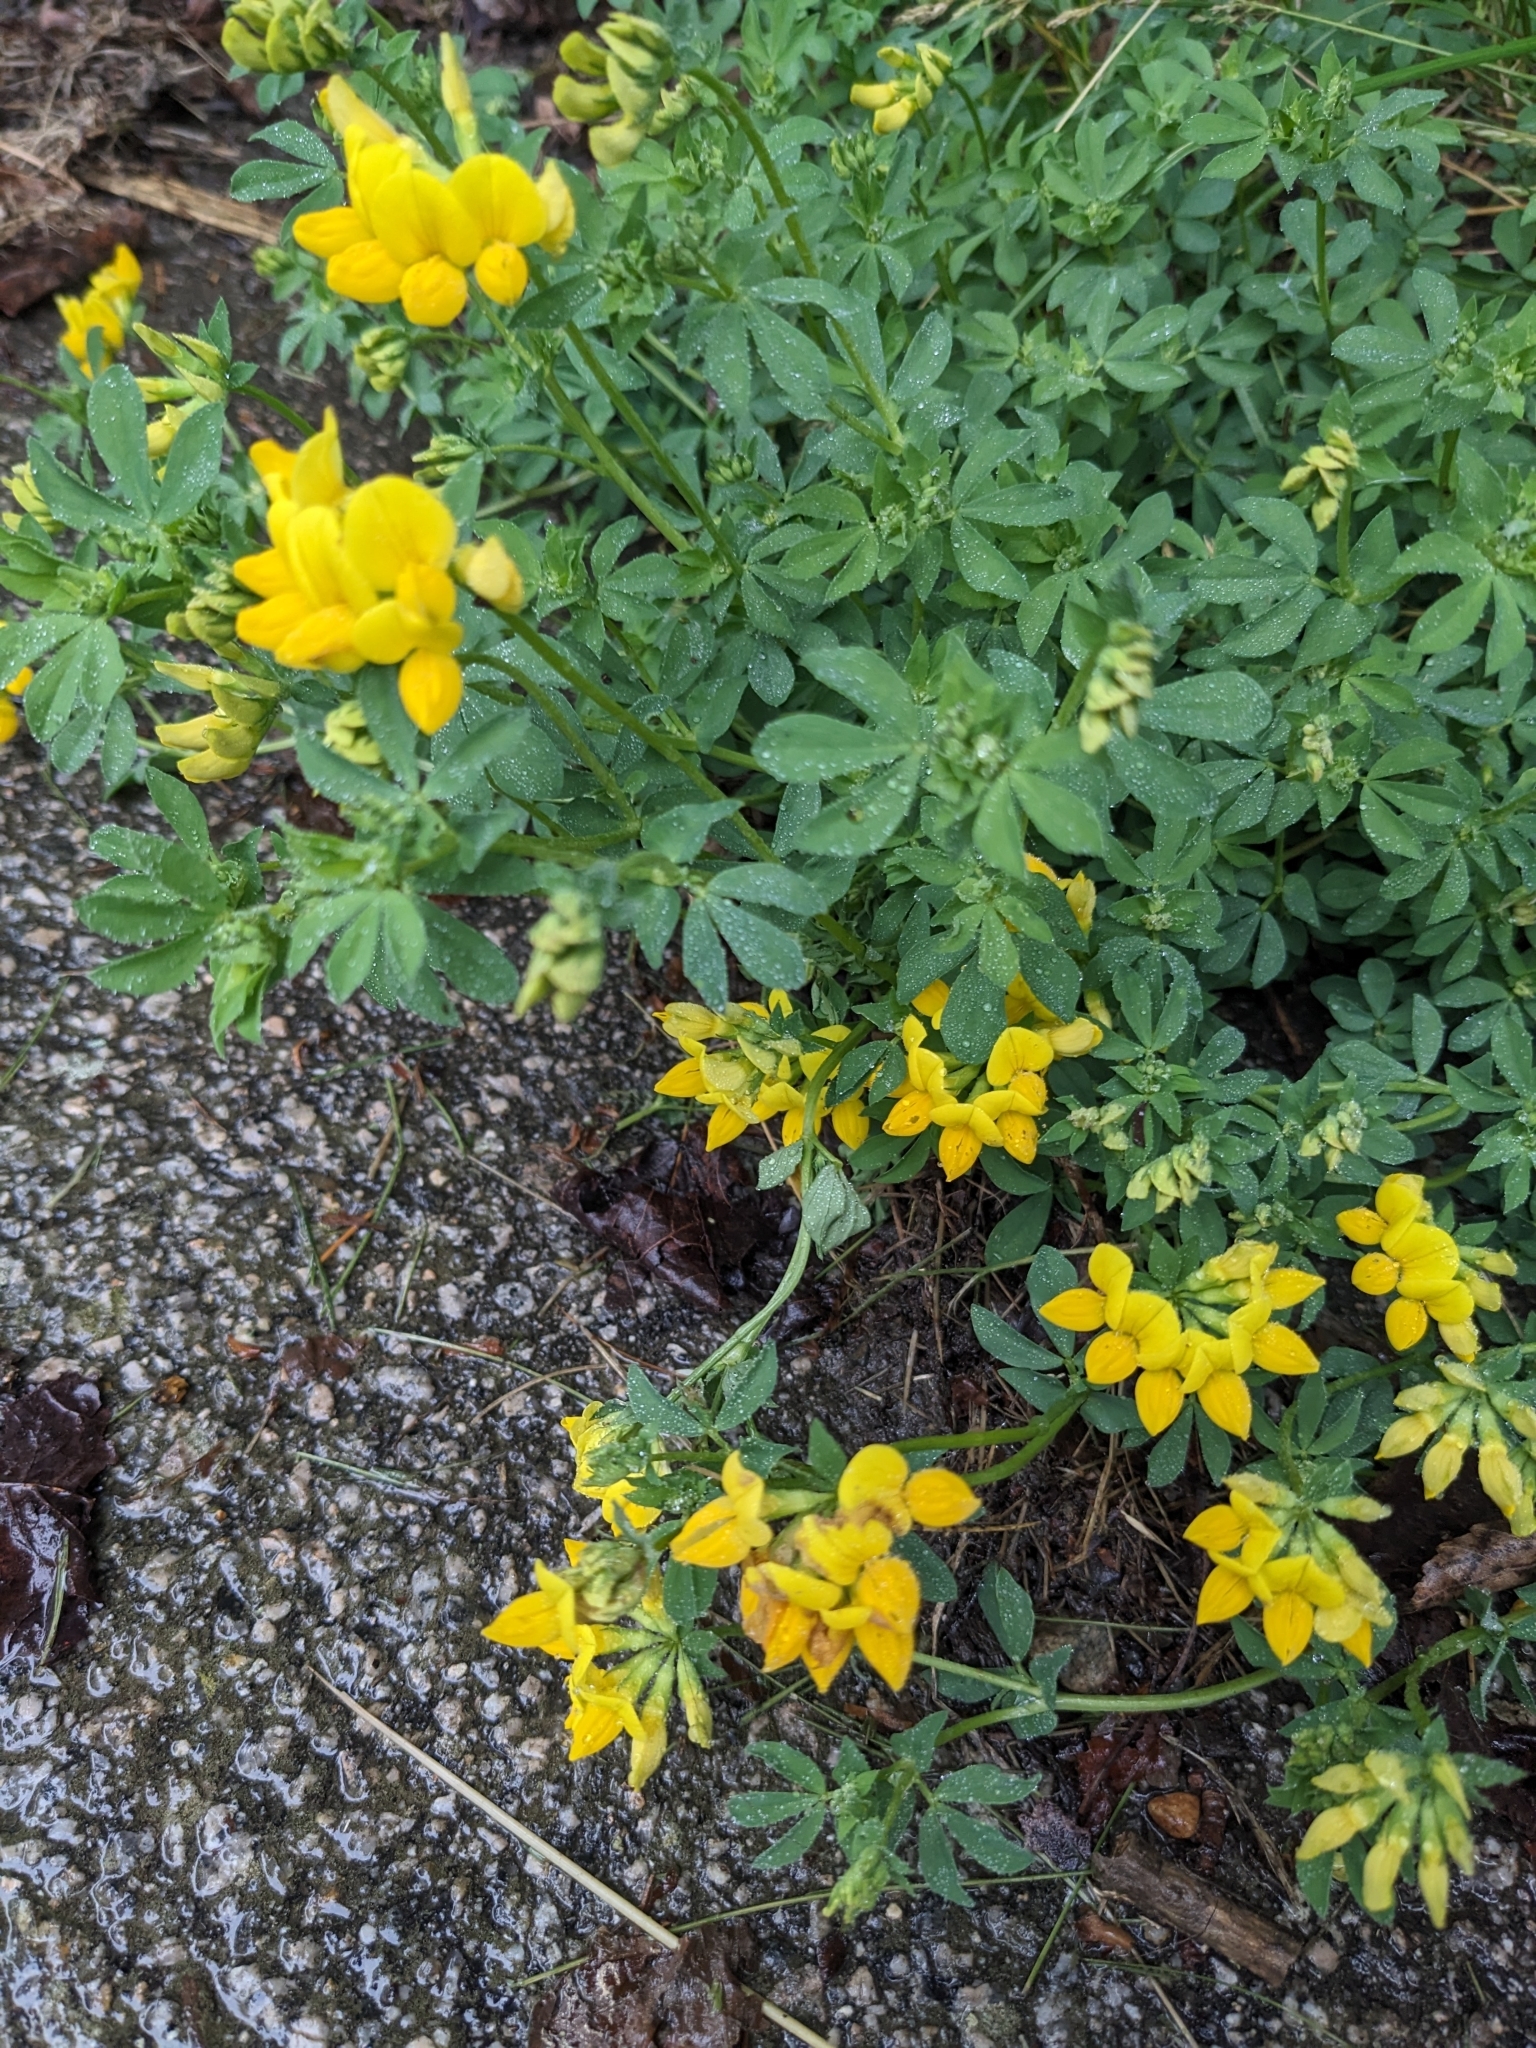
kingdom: Plantae
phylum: Tracheophyta
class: Magnoliopsida
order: Fabales
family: Fabaceae
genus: Lotus
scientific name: Lotus corniculatus
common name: Common bird's-foot-trefoil
